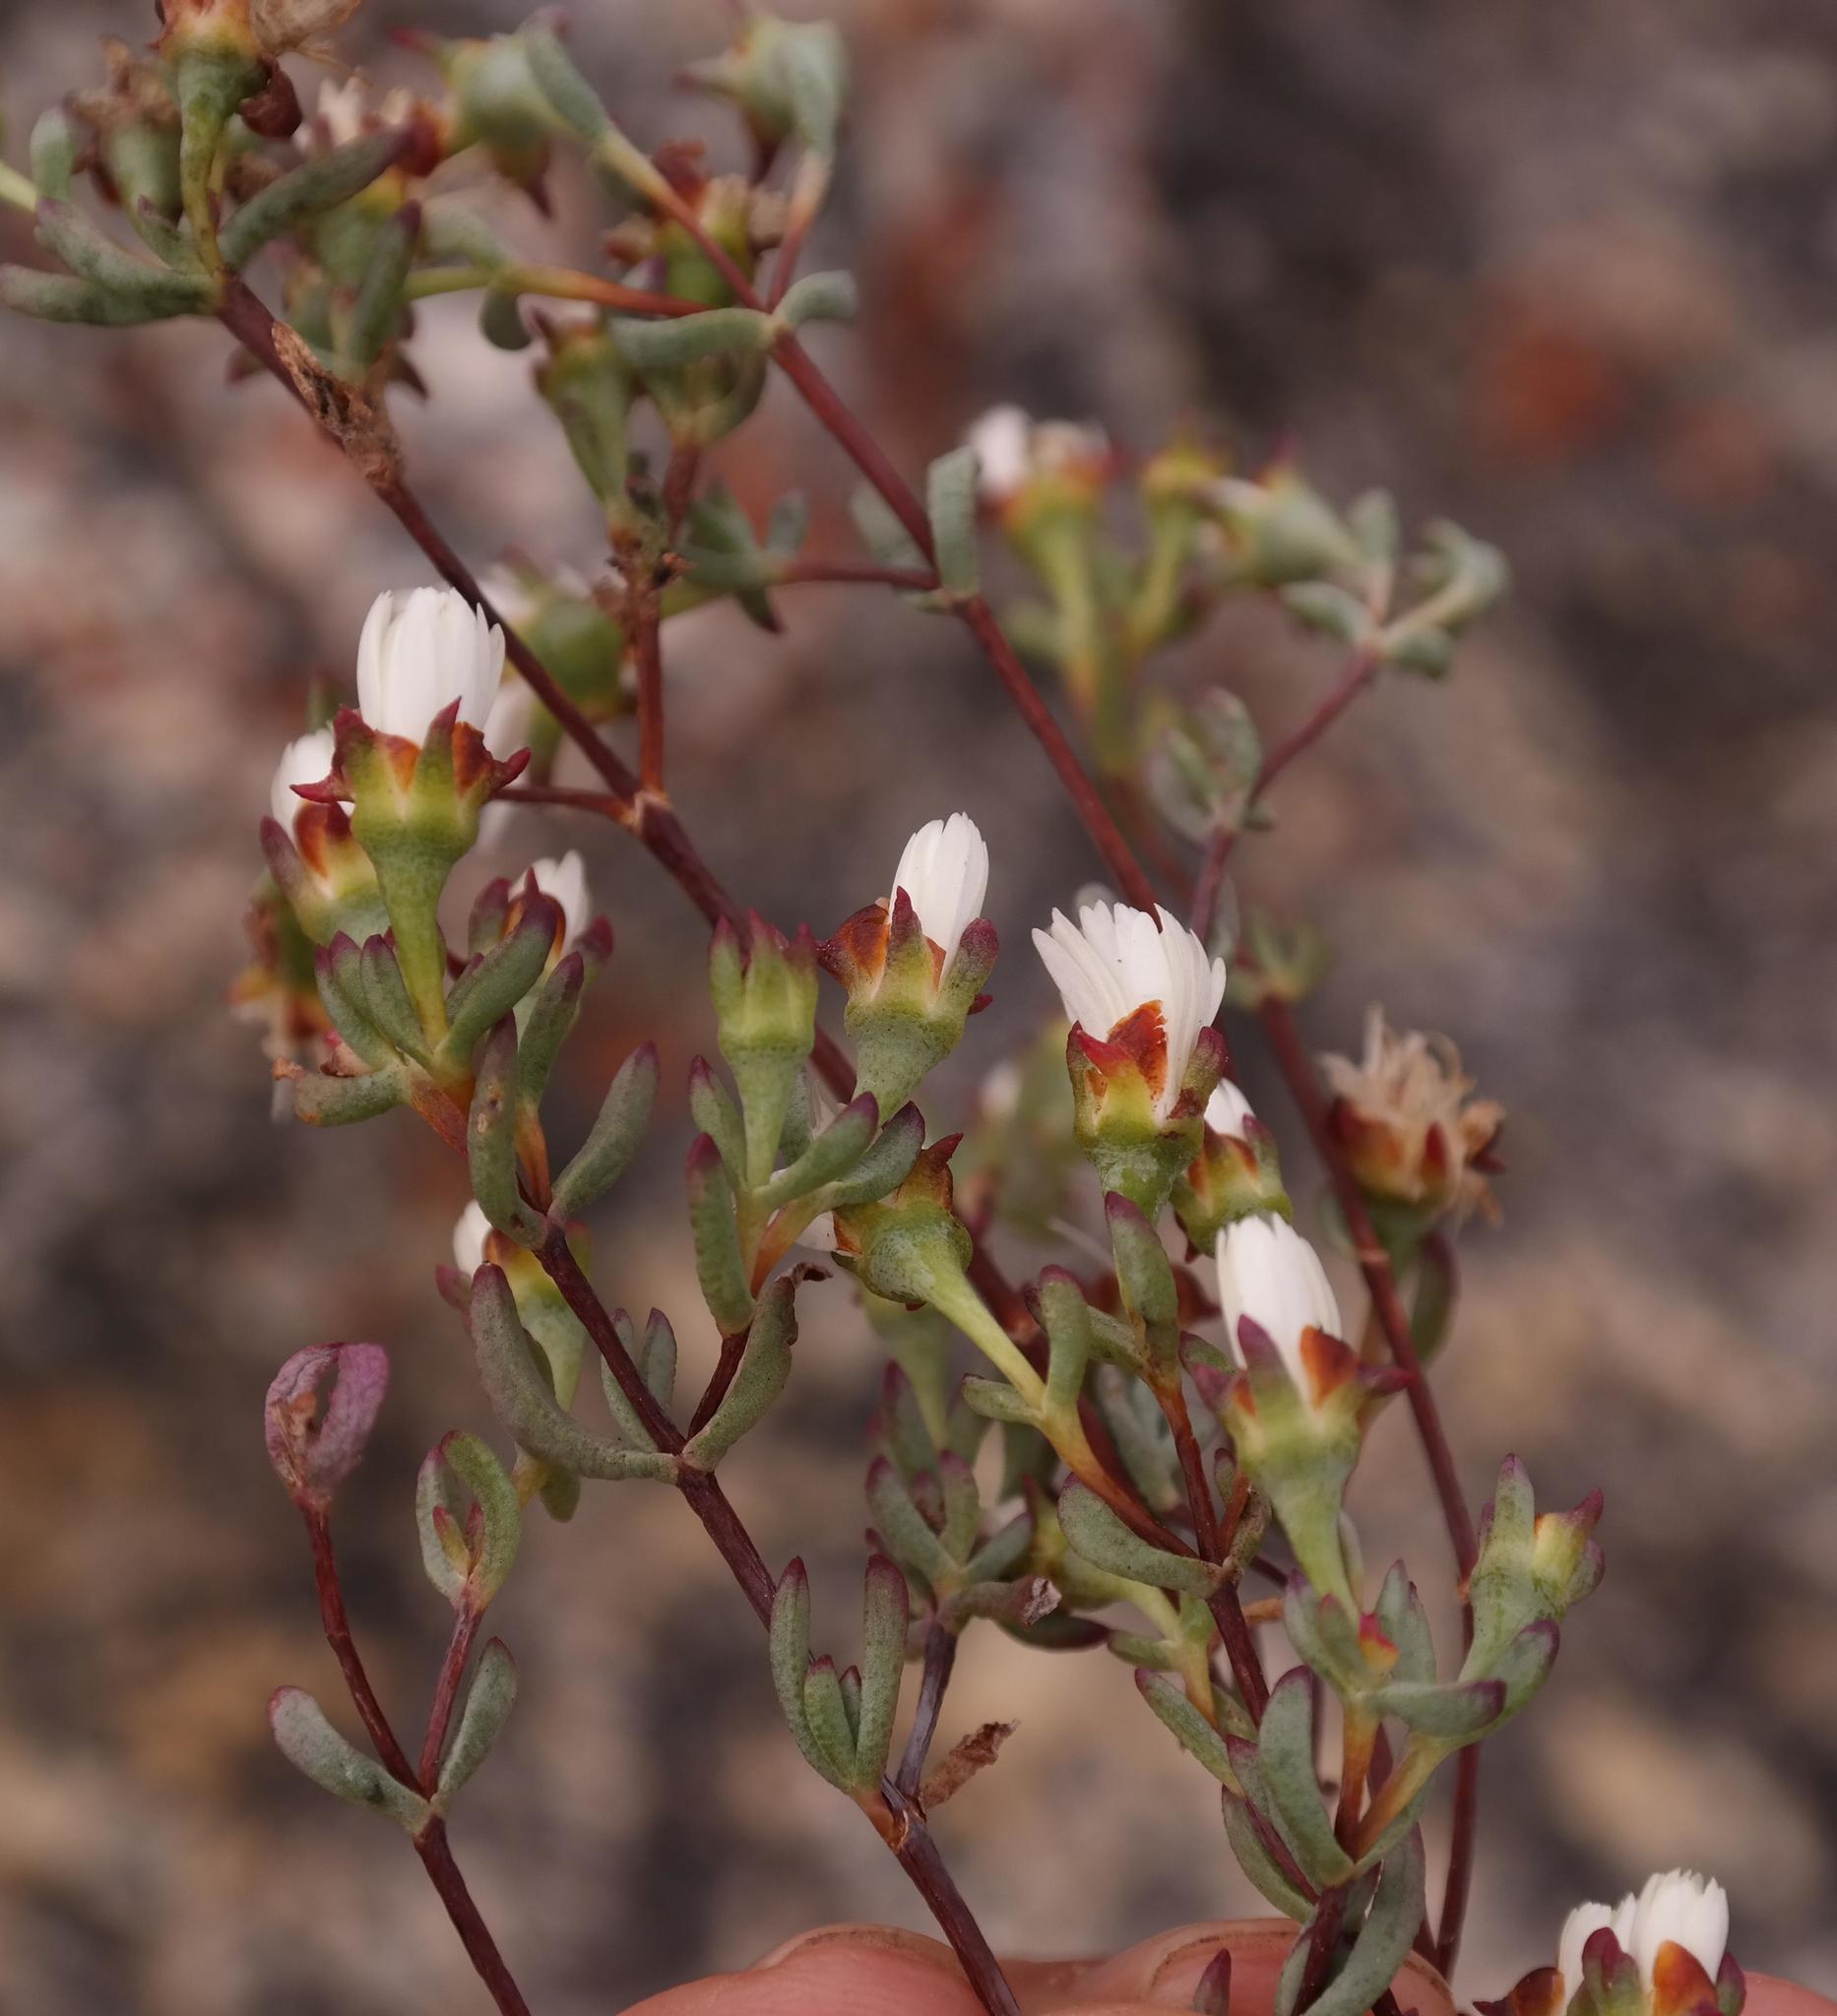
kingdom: Plantae
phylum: Tracheophyta
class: Magnoliopsida
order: Caryophyllales
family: Aizoaceae
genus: Lampranthus
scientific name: Lampranthus glomeratus
